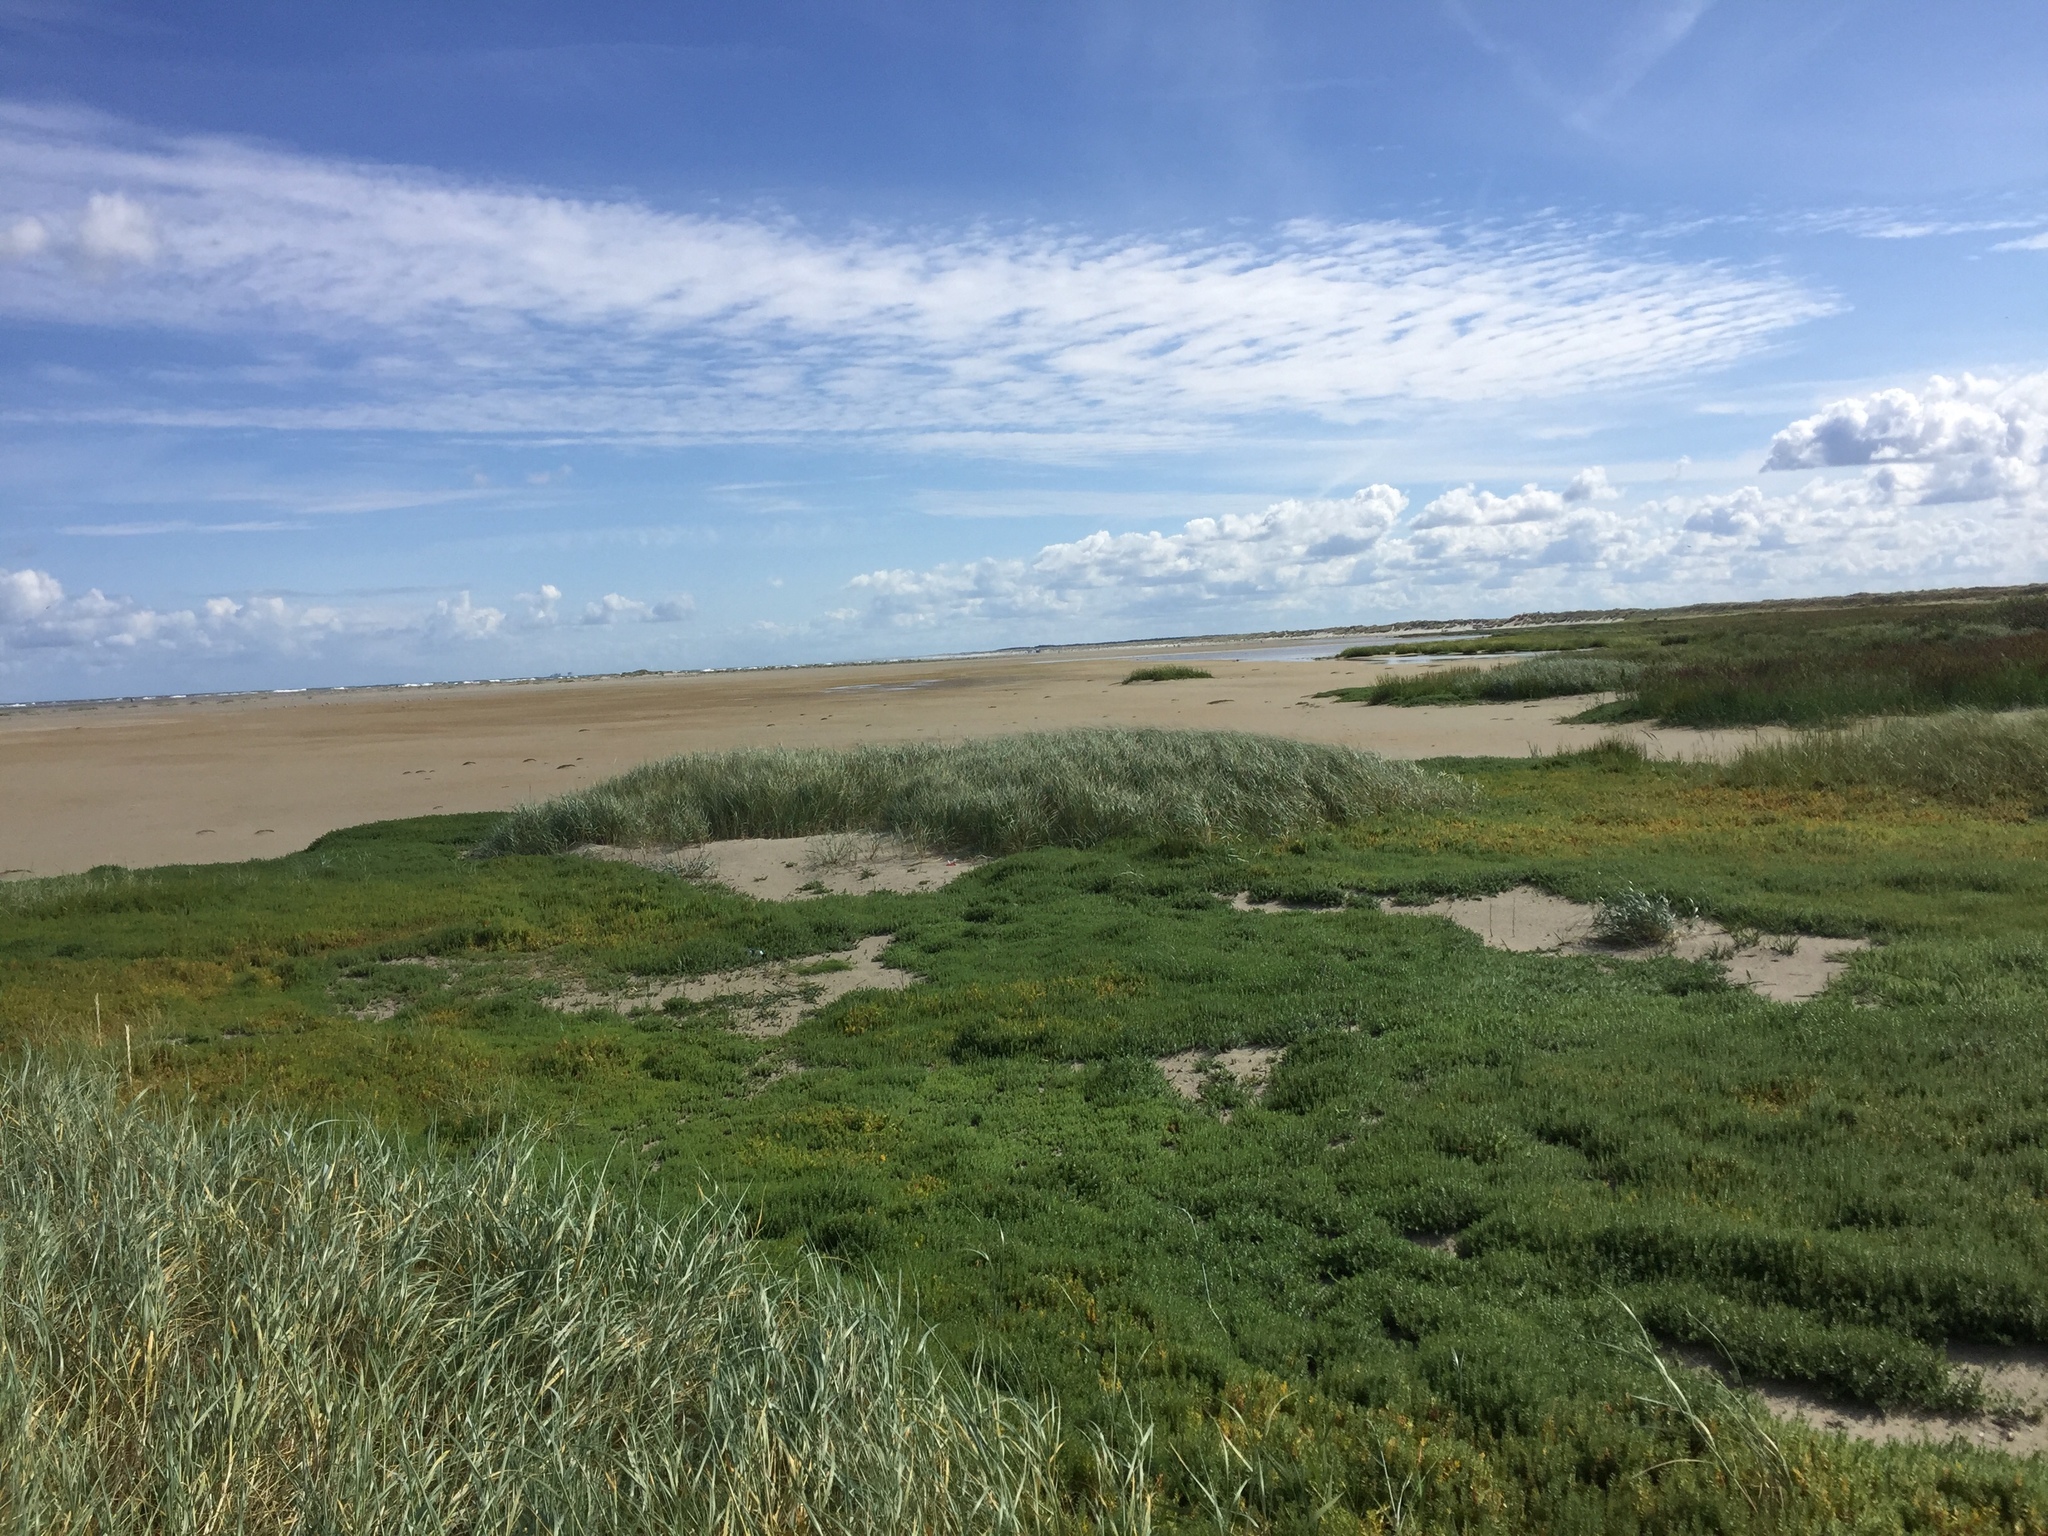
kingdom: Plantae
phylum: Tracheophyta
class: Magnoliopsida
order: Ericales
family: Primulaceae
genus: Lysimachia
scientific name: Lysimachia maritima
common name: Sea milkwort
